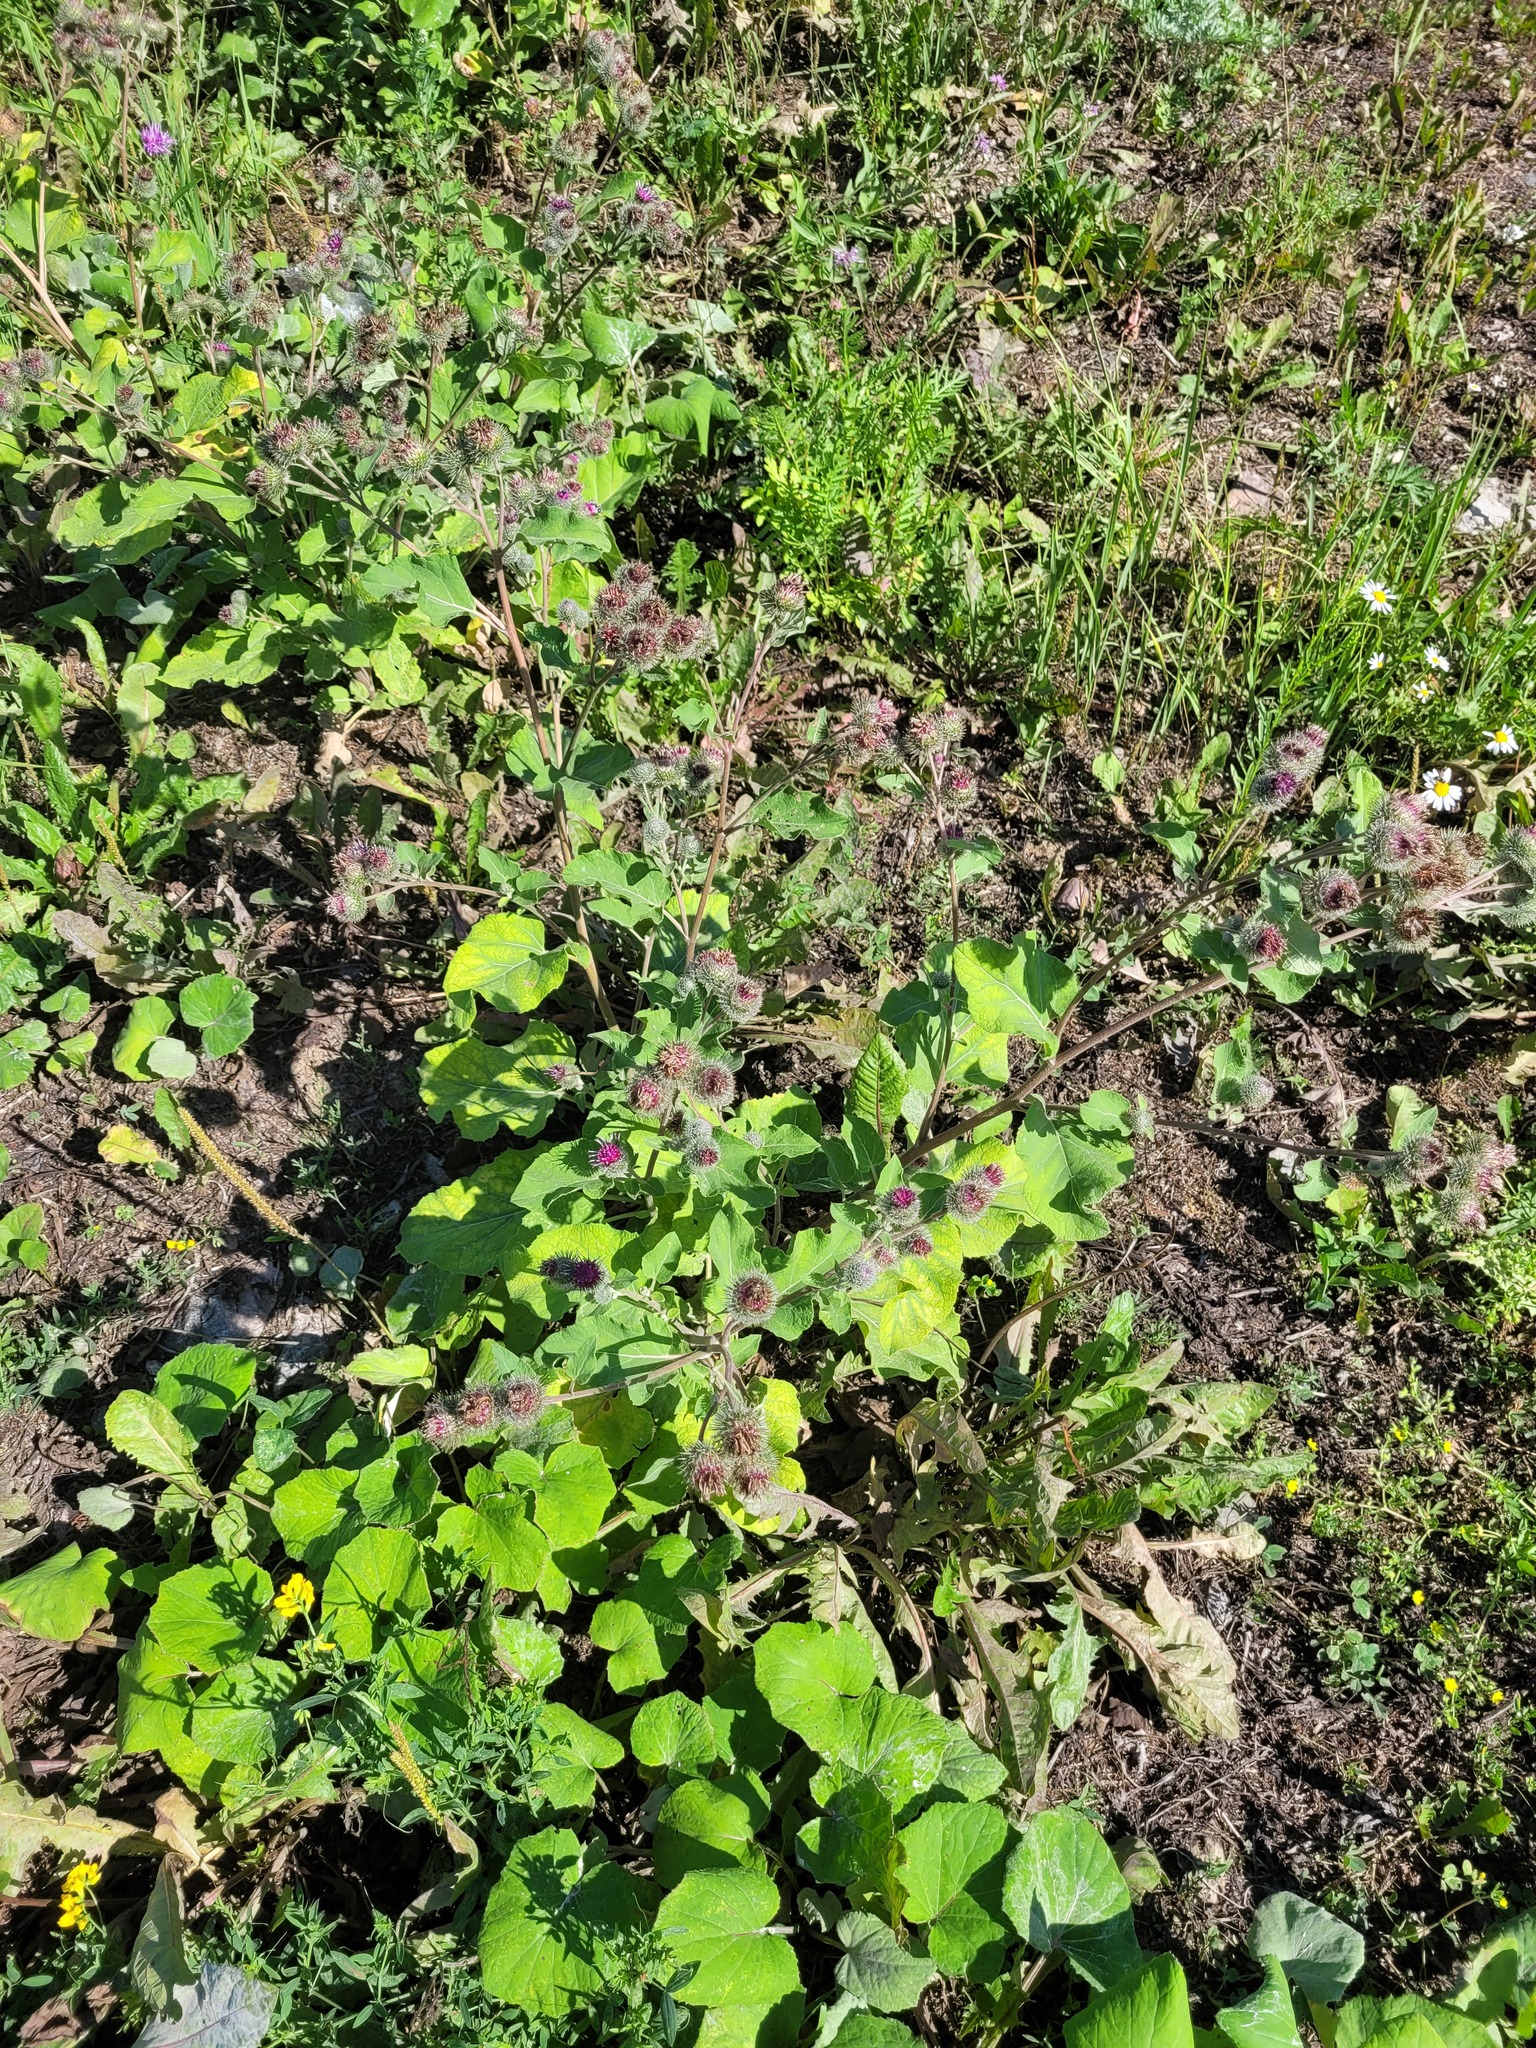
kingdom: Plantae
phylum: Tracheophyta
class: Magnoliopsida
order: Asterales
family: Asteraceae
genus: Arctium
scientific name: Arctium tomentosum
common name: Woolly burdock
